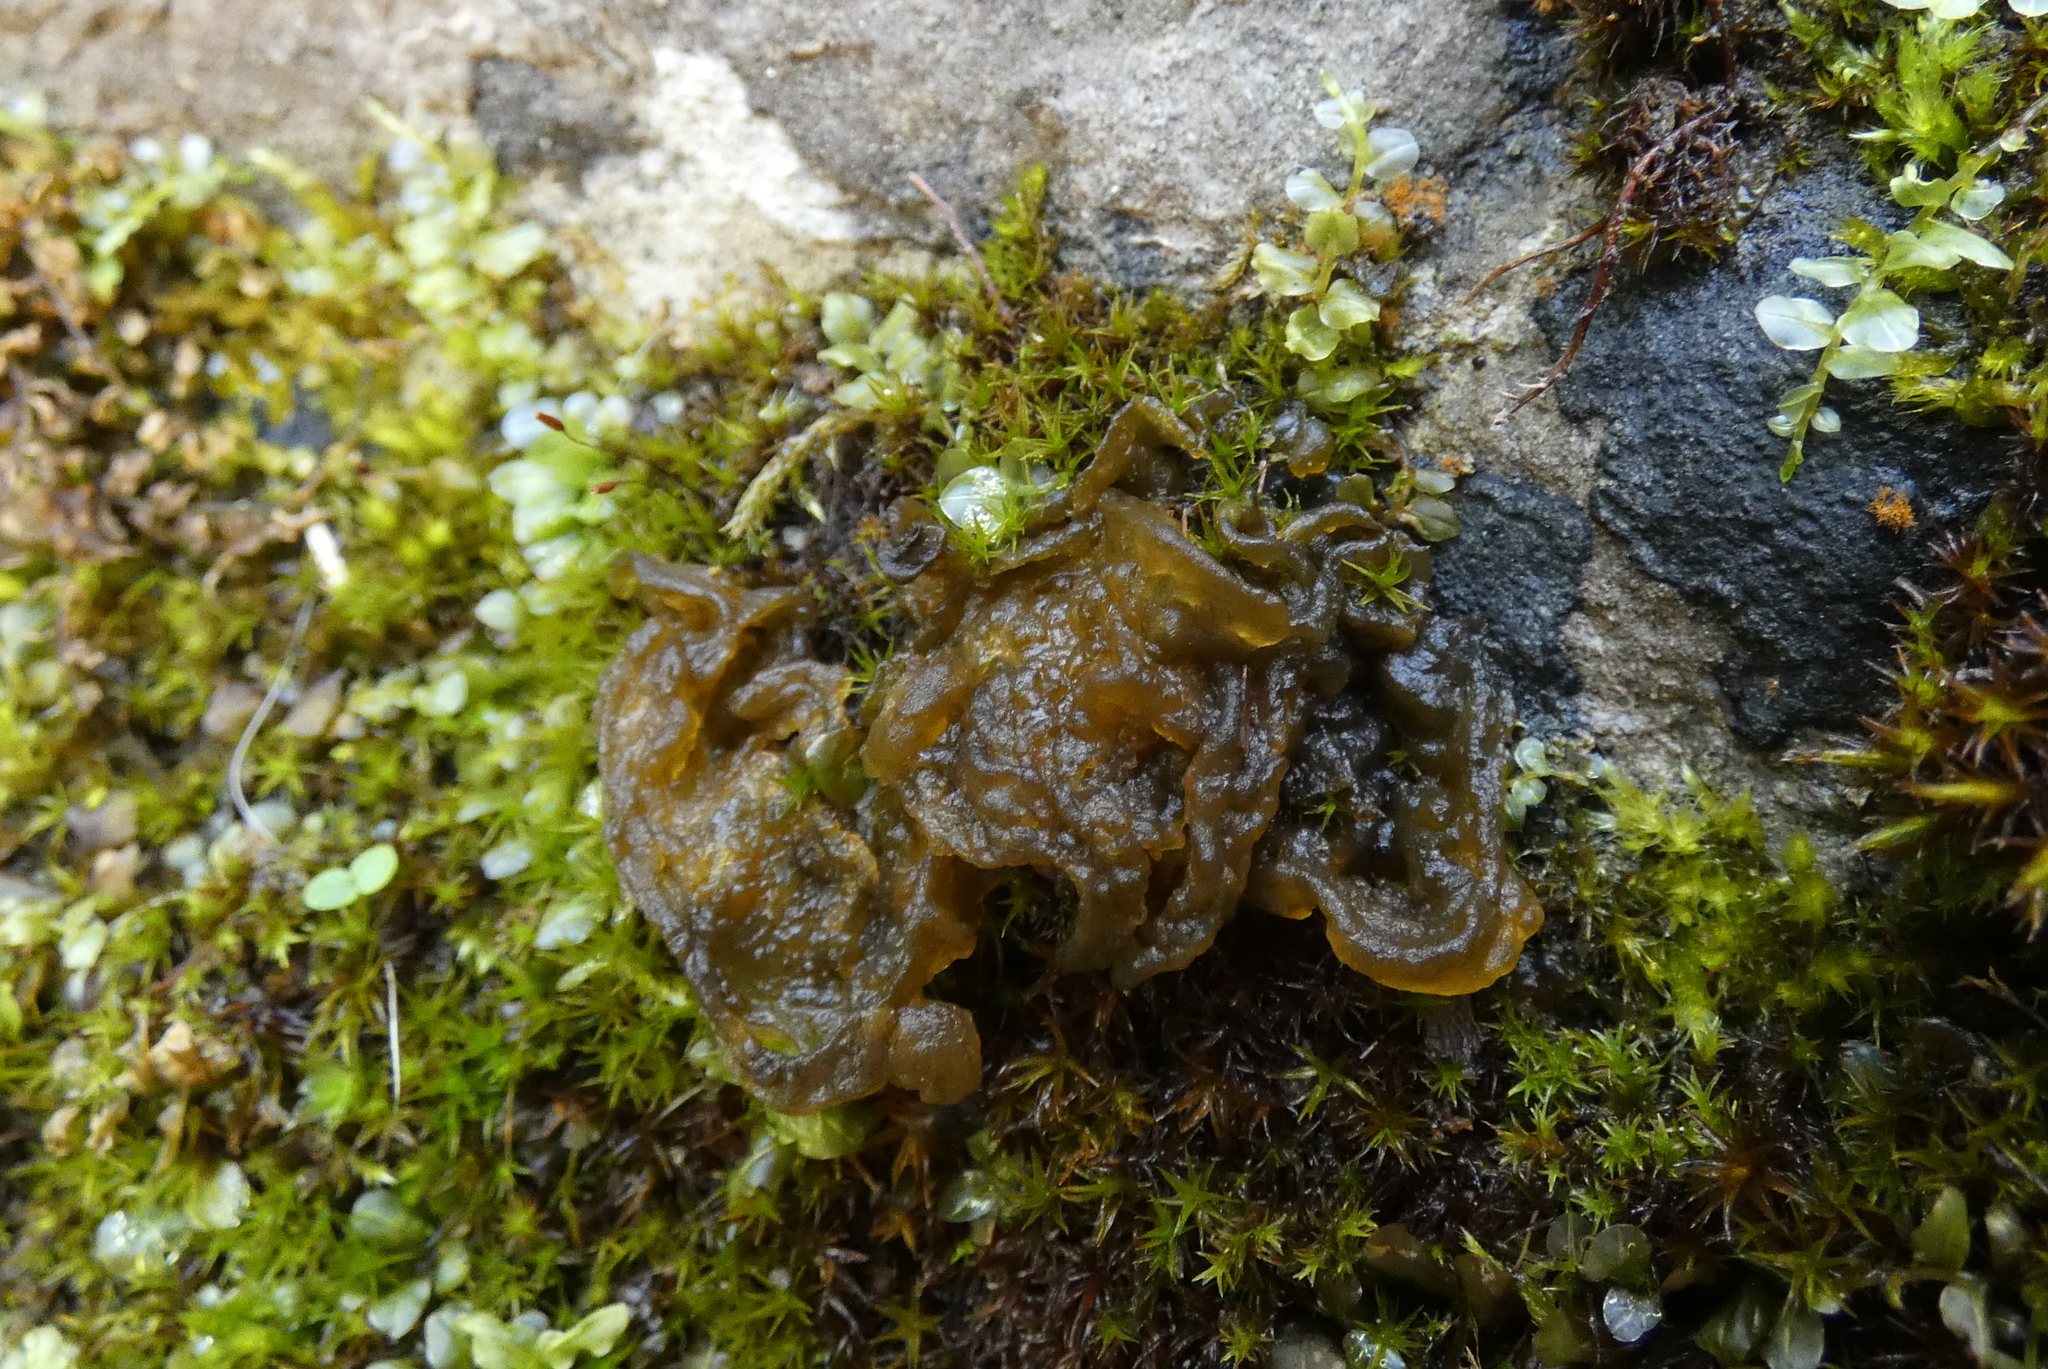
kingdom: Bacteria
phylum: Cyanobacteria
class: Cyanobacteriia
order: Cyanobacteriales
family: Nostocaceae
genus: Nostoc
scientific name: Nostoc commune
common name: Star jelly
